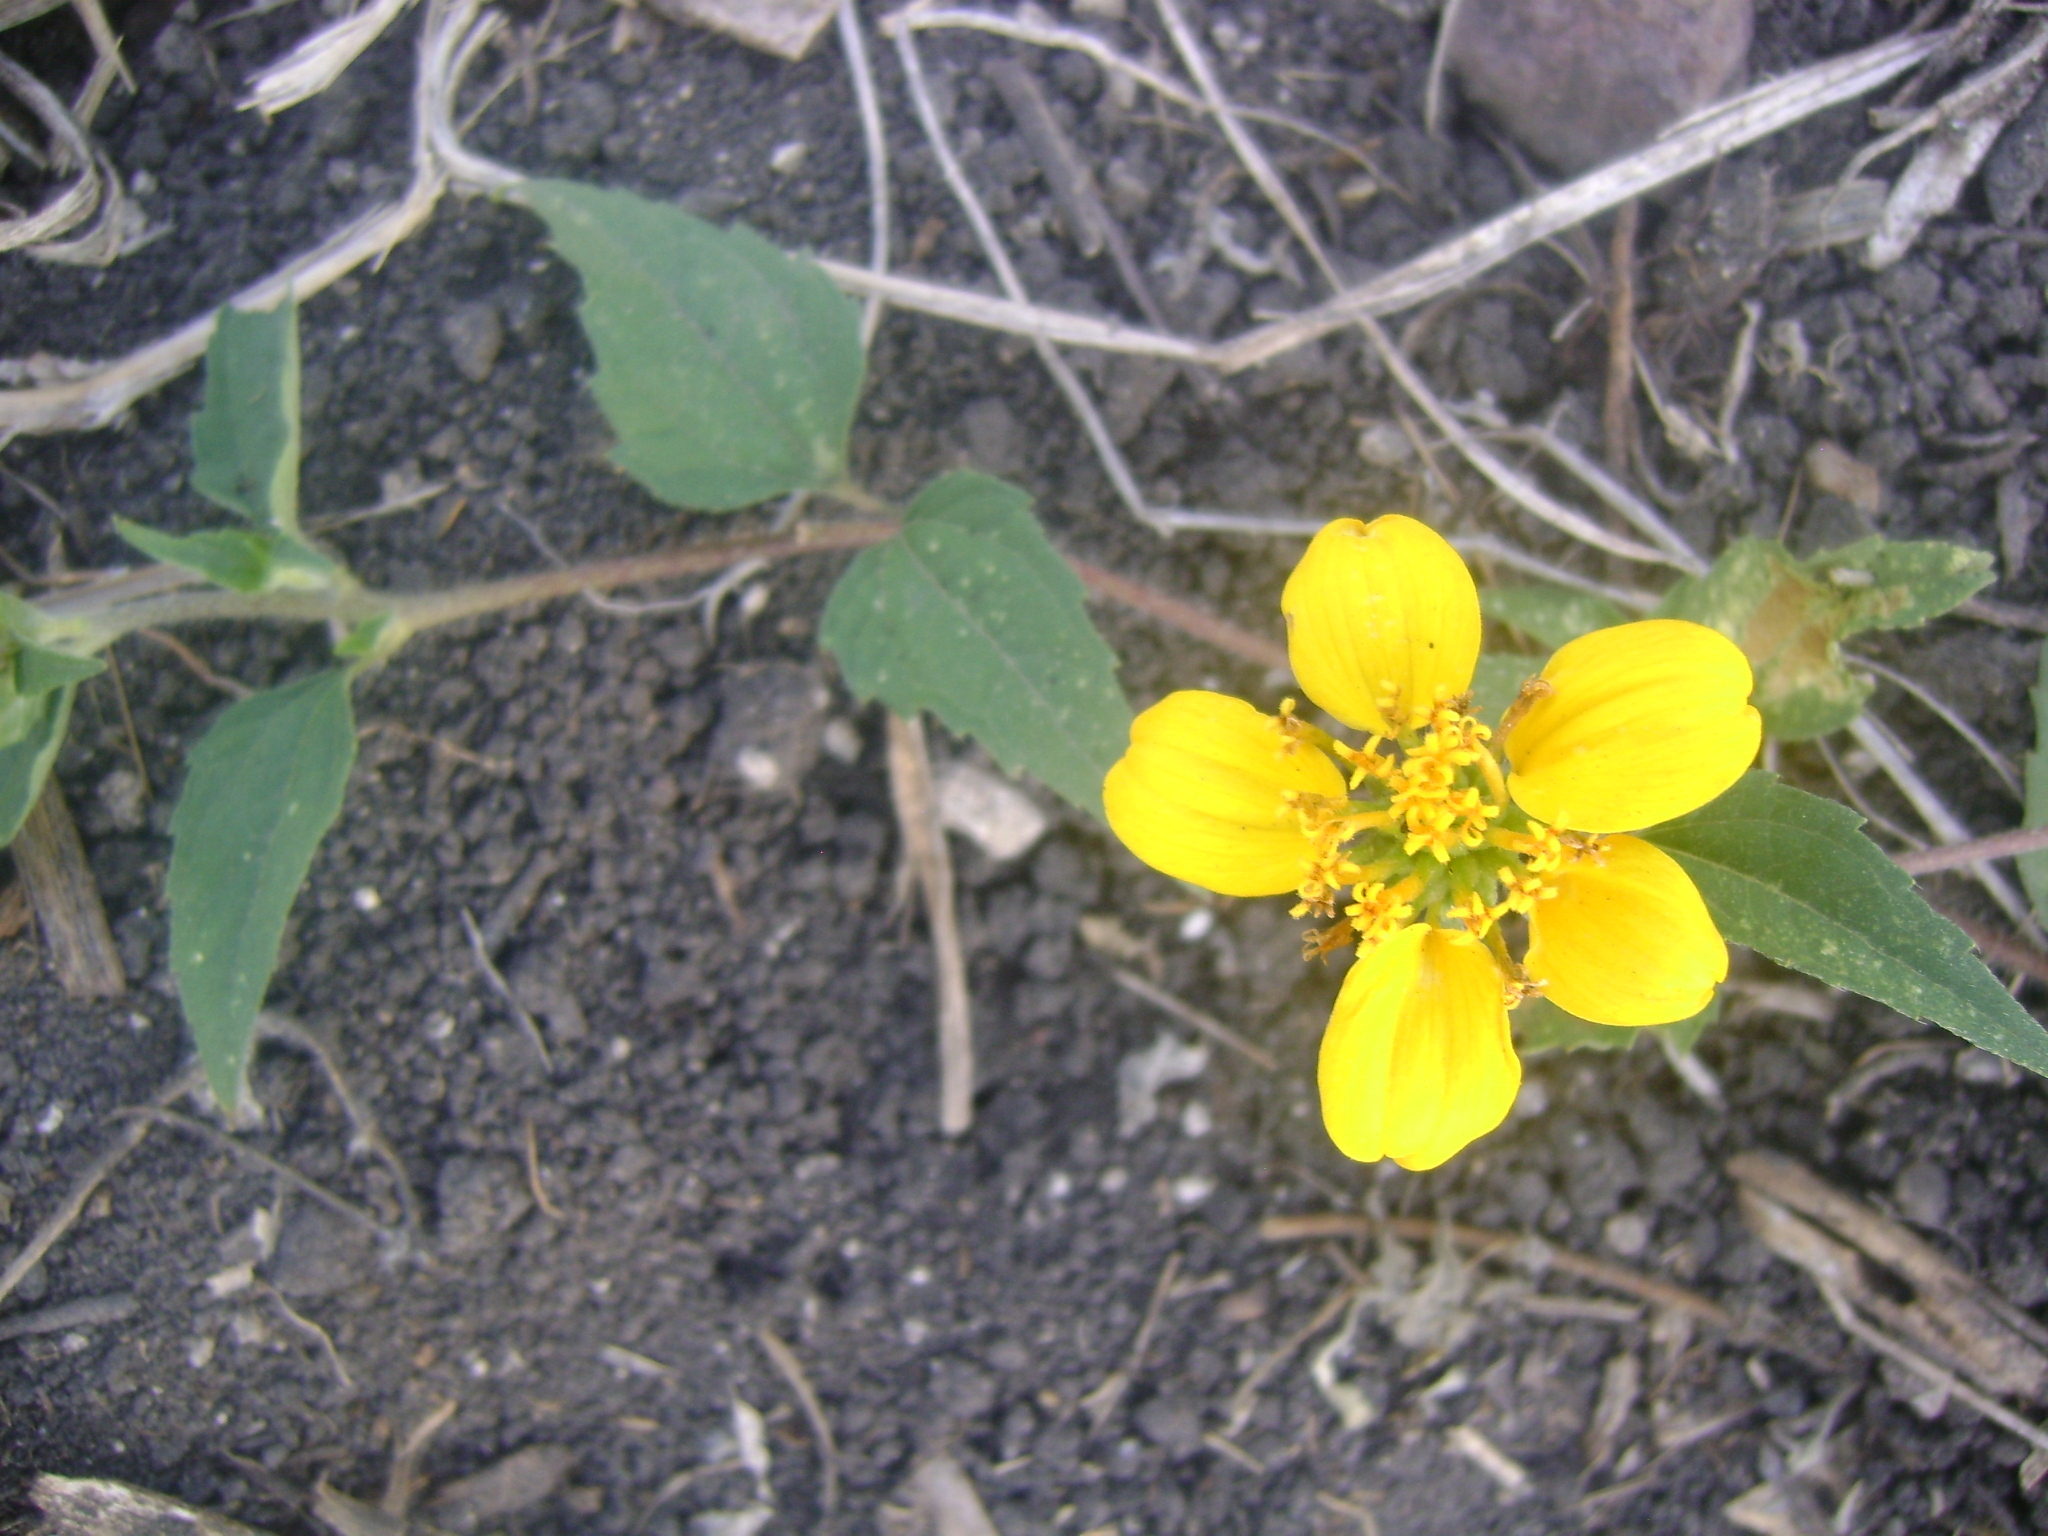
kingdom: Plantae
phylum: Tracheophyta
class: Magnoliopsida
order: Asterales
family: Asteraceae
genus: Sclerocarpus
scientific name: Sclerocarpus uniserialis
